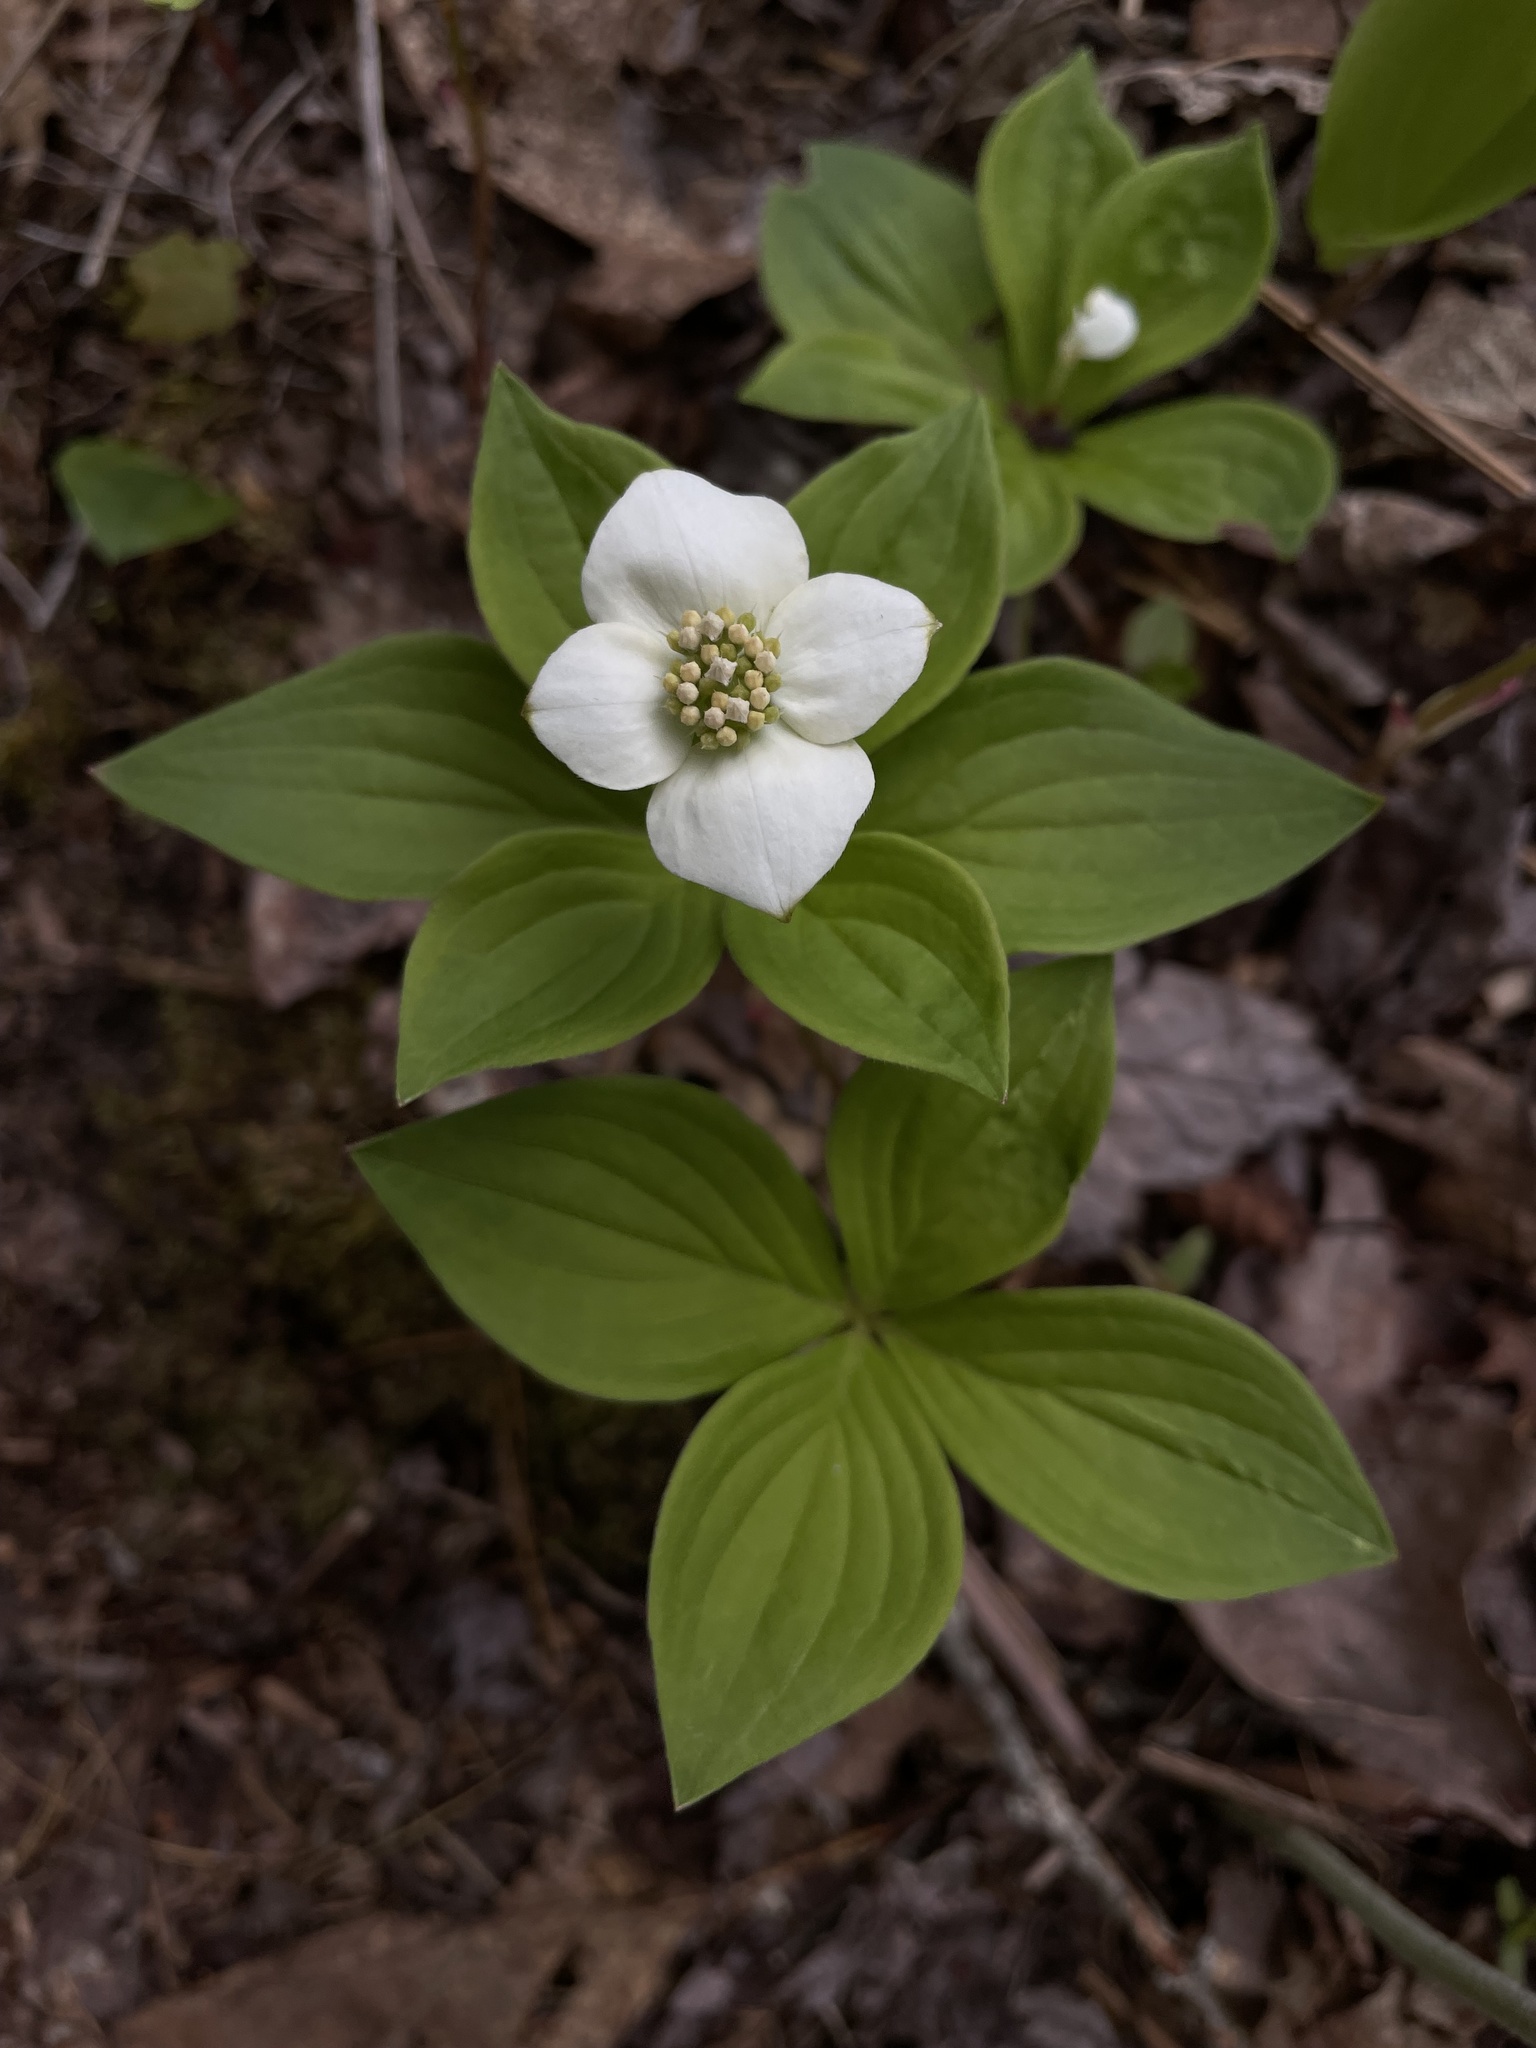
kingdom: Plantae
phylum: Tracheophyta
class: Magnoliopsida
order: Cornales
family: Cornaceae
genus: Cornus
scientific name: Cornus canadensis
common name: Creeping dogwood
